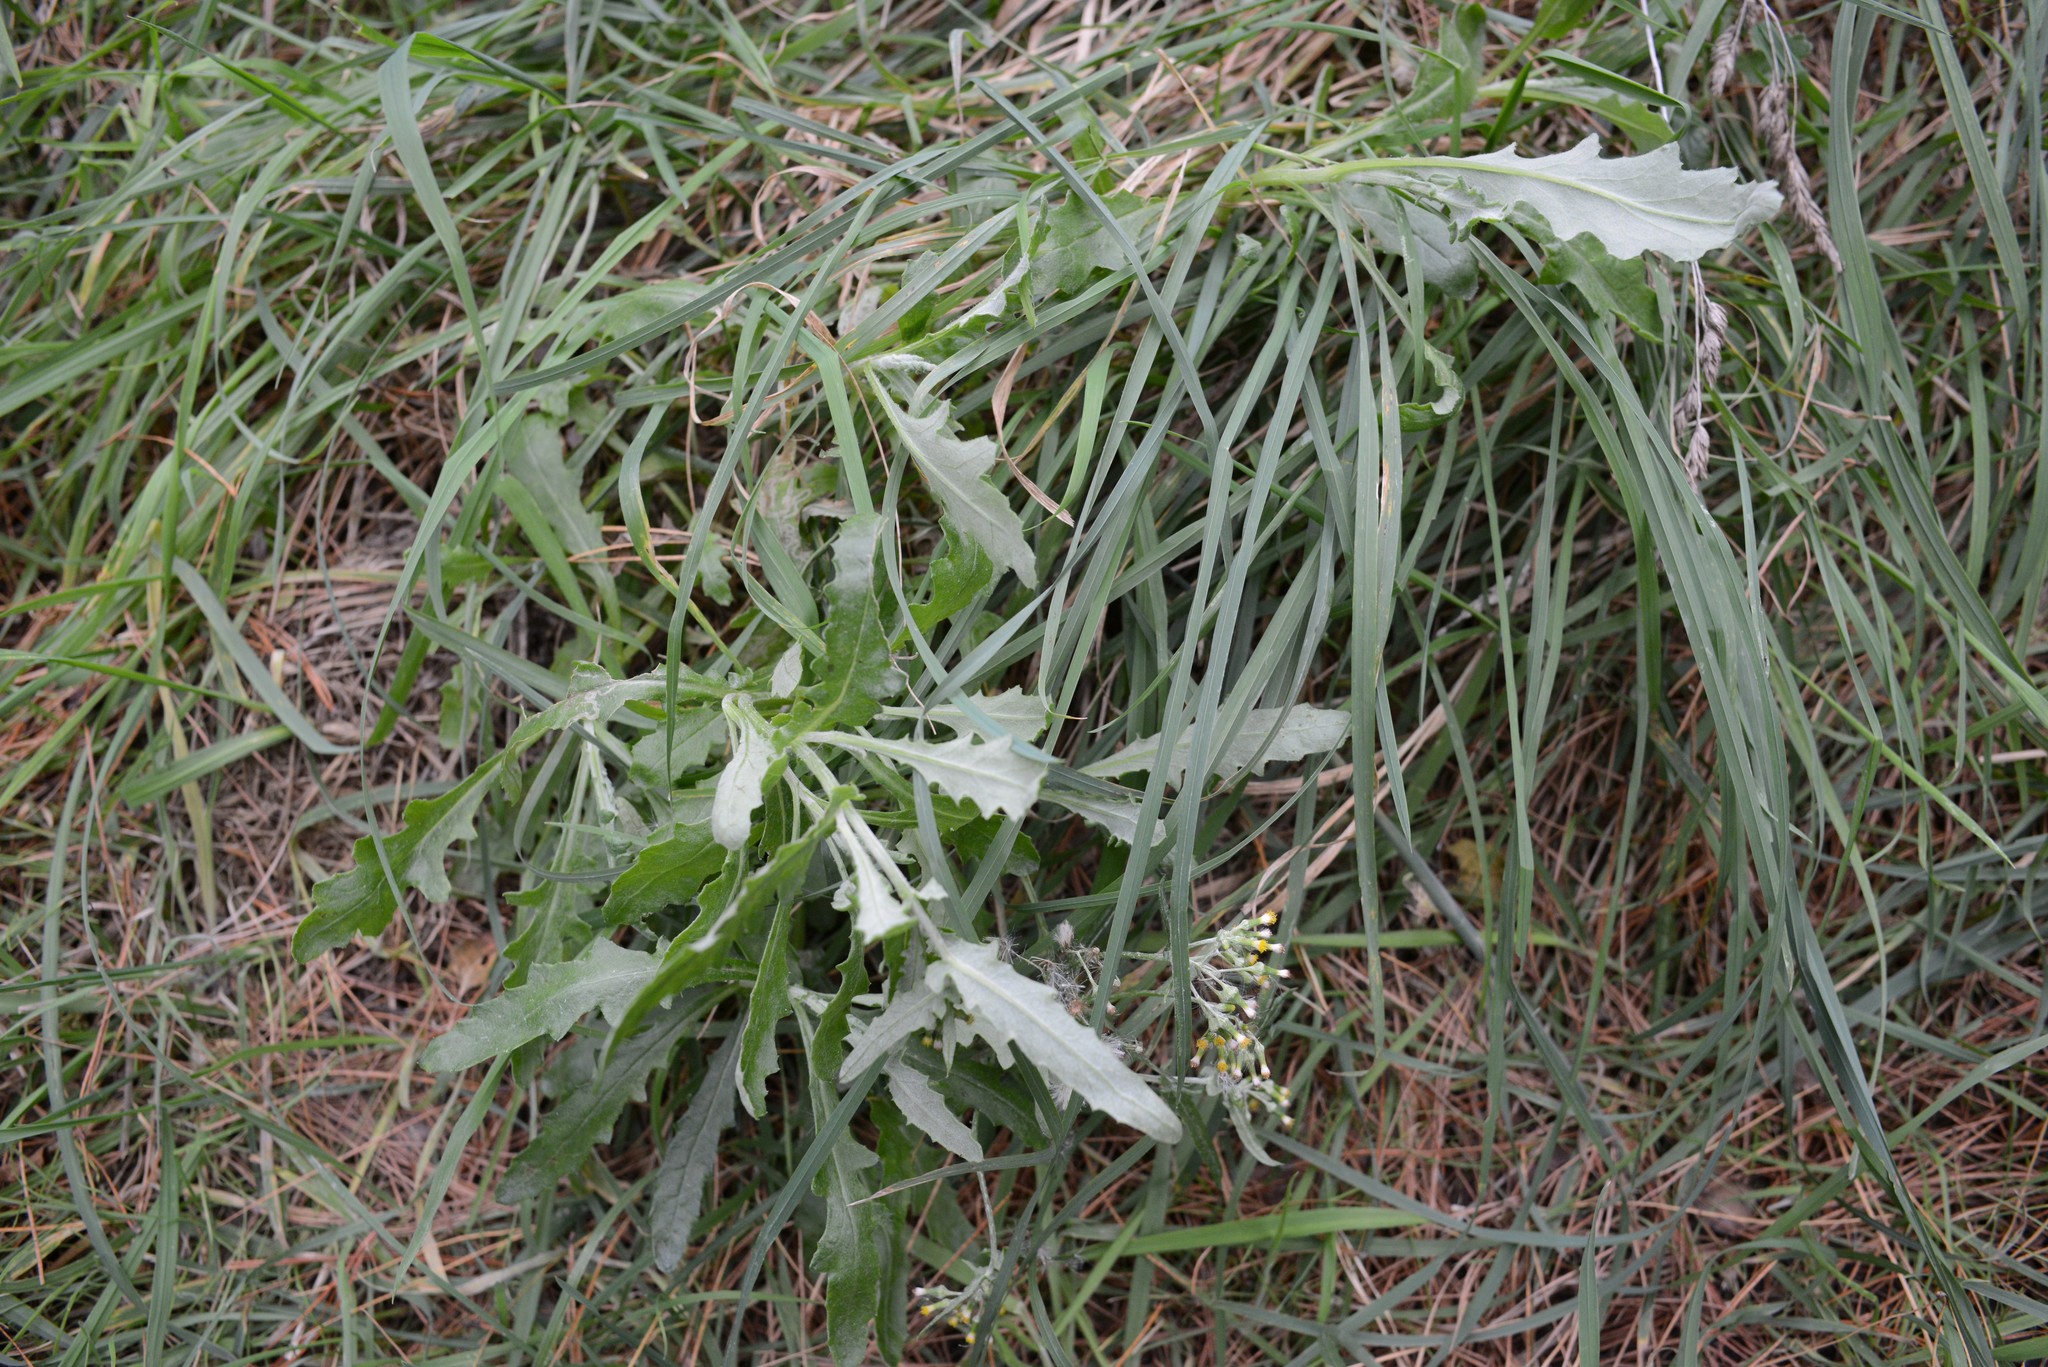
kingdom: Plantae
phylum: Tracheophyta
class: Magnoliopsida
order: Asterales
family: Asteraceae
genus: Senecio
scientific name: Senecio glomeratus
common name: Cutleaf burnweed
